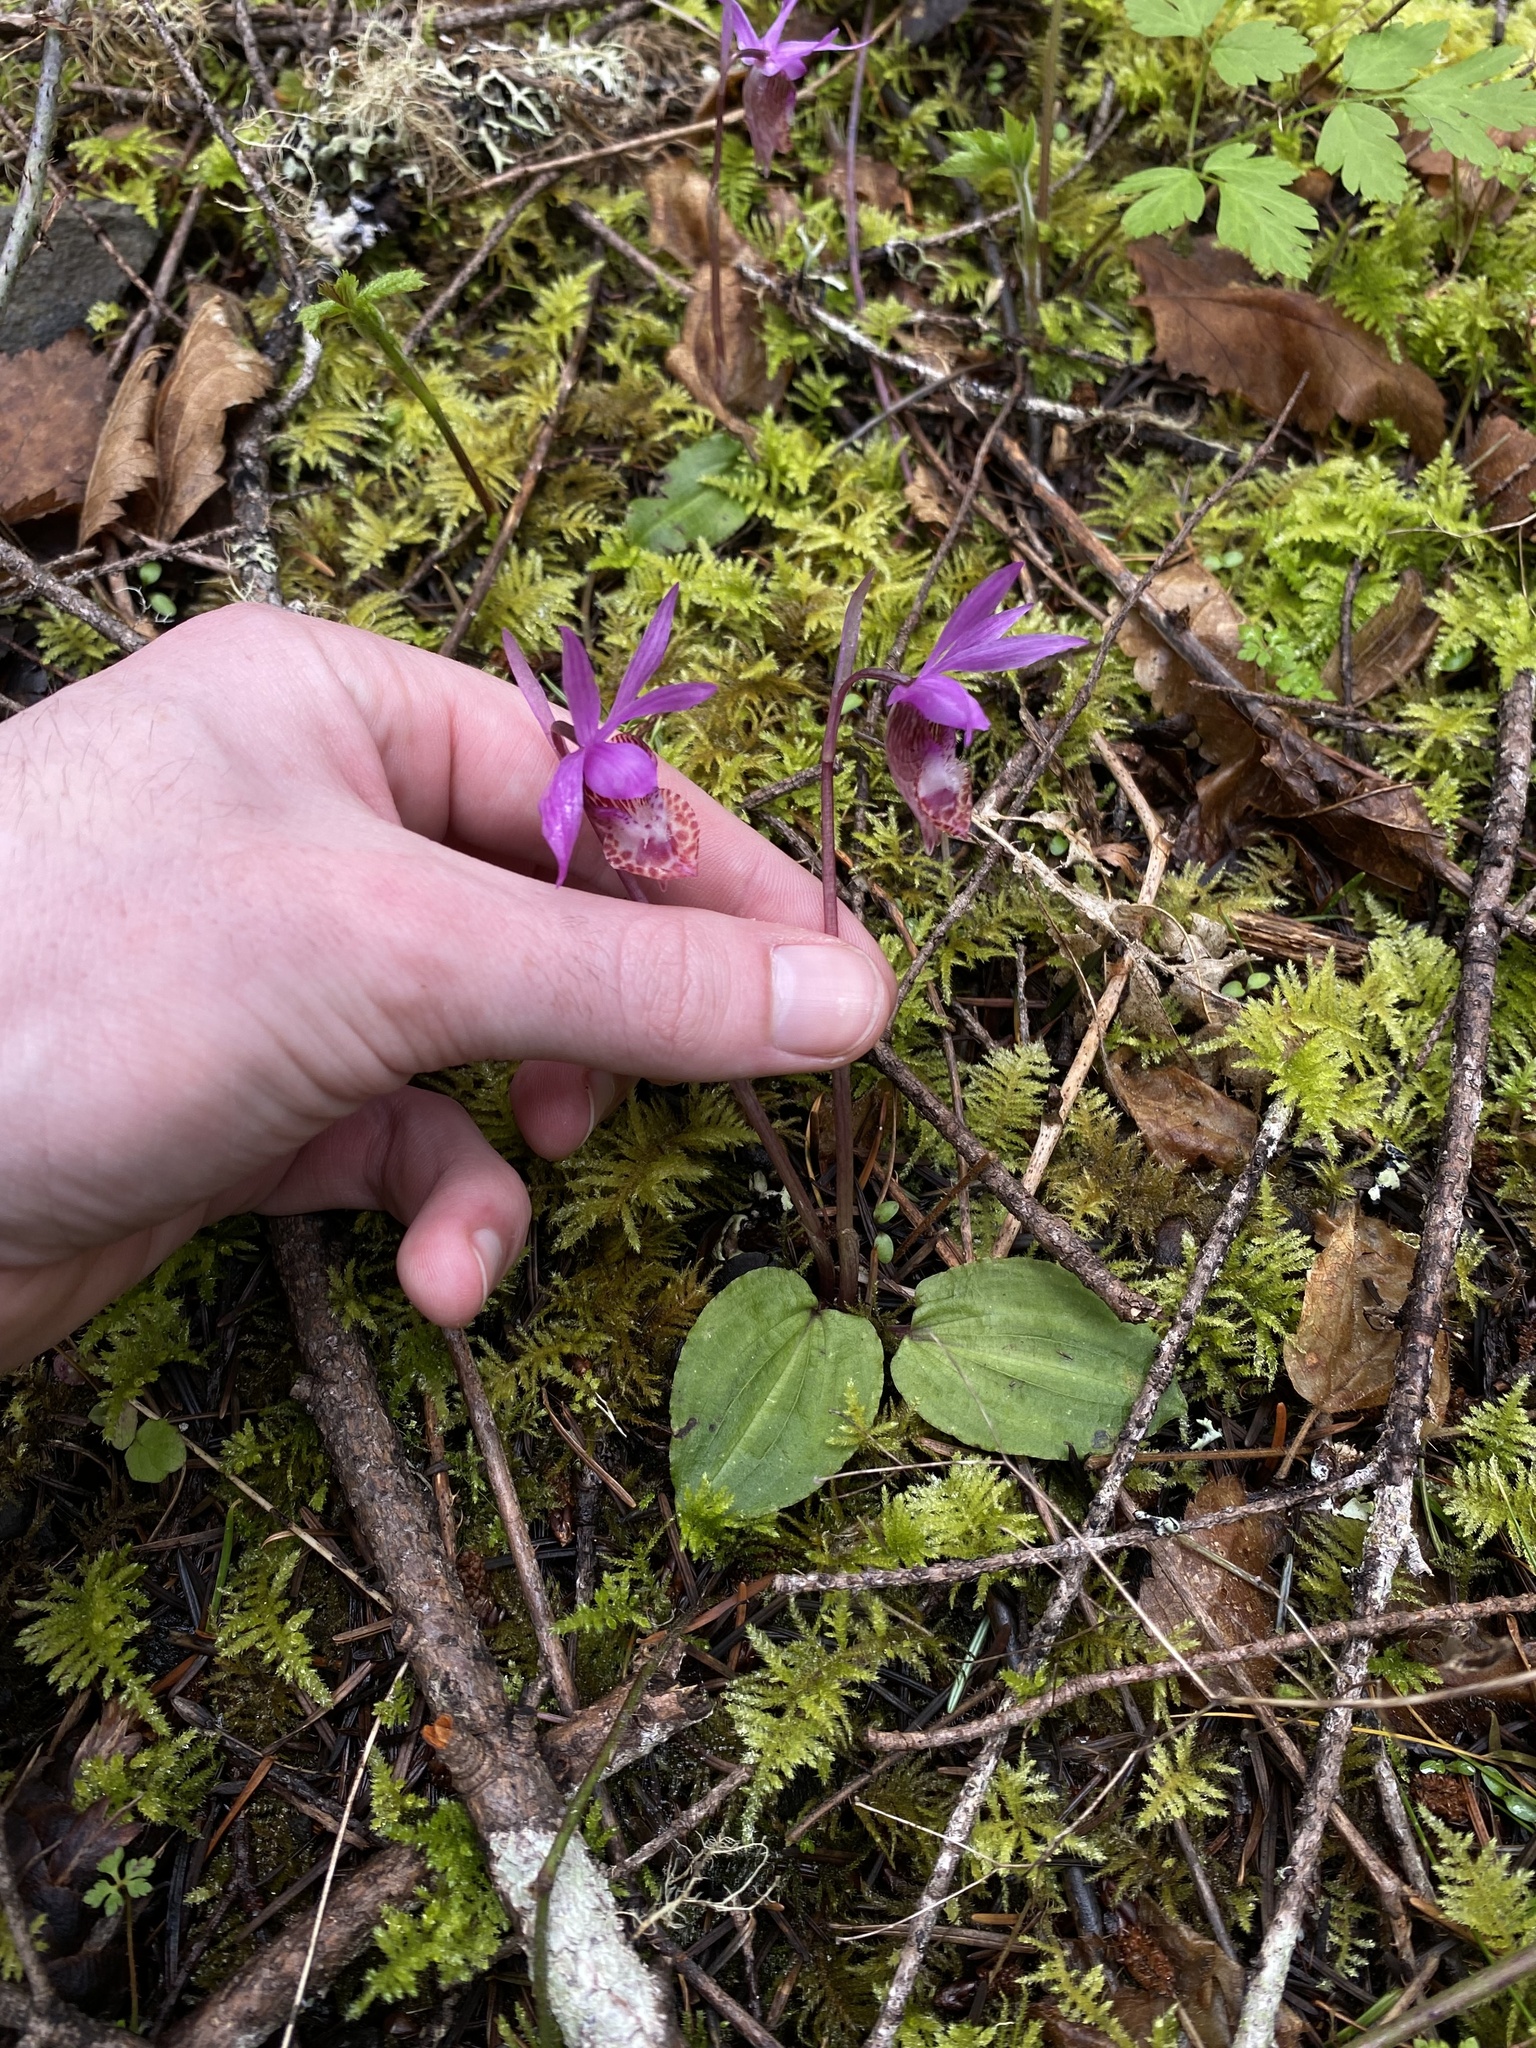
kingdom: Plantae
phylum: Tracheophyta
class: Liliopsida
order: Asparagales
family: Orchidaceae
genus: Calypso
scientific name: Calypso bulbosa
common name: Calypso
